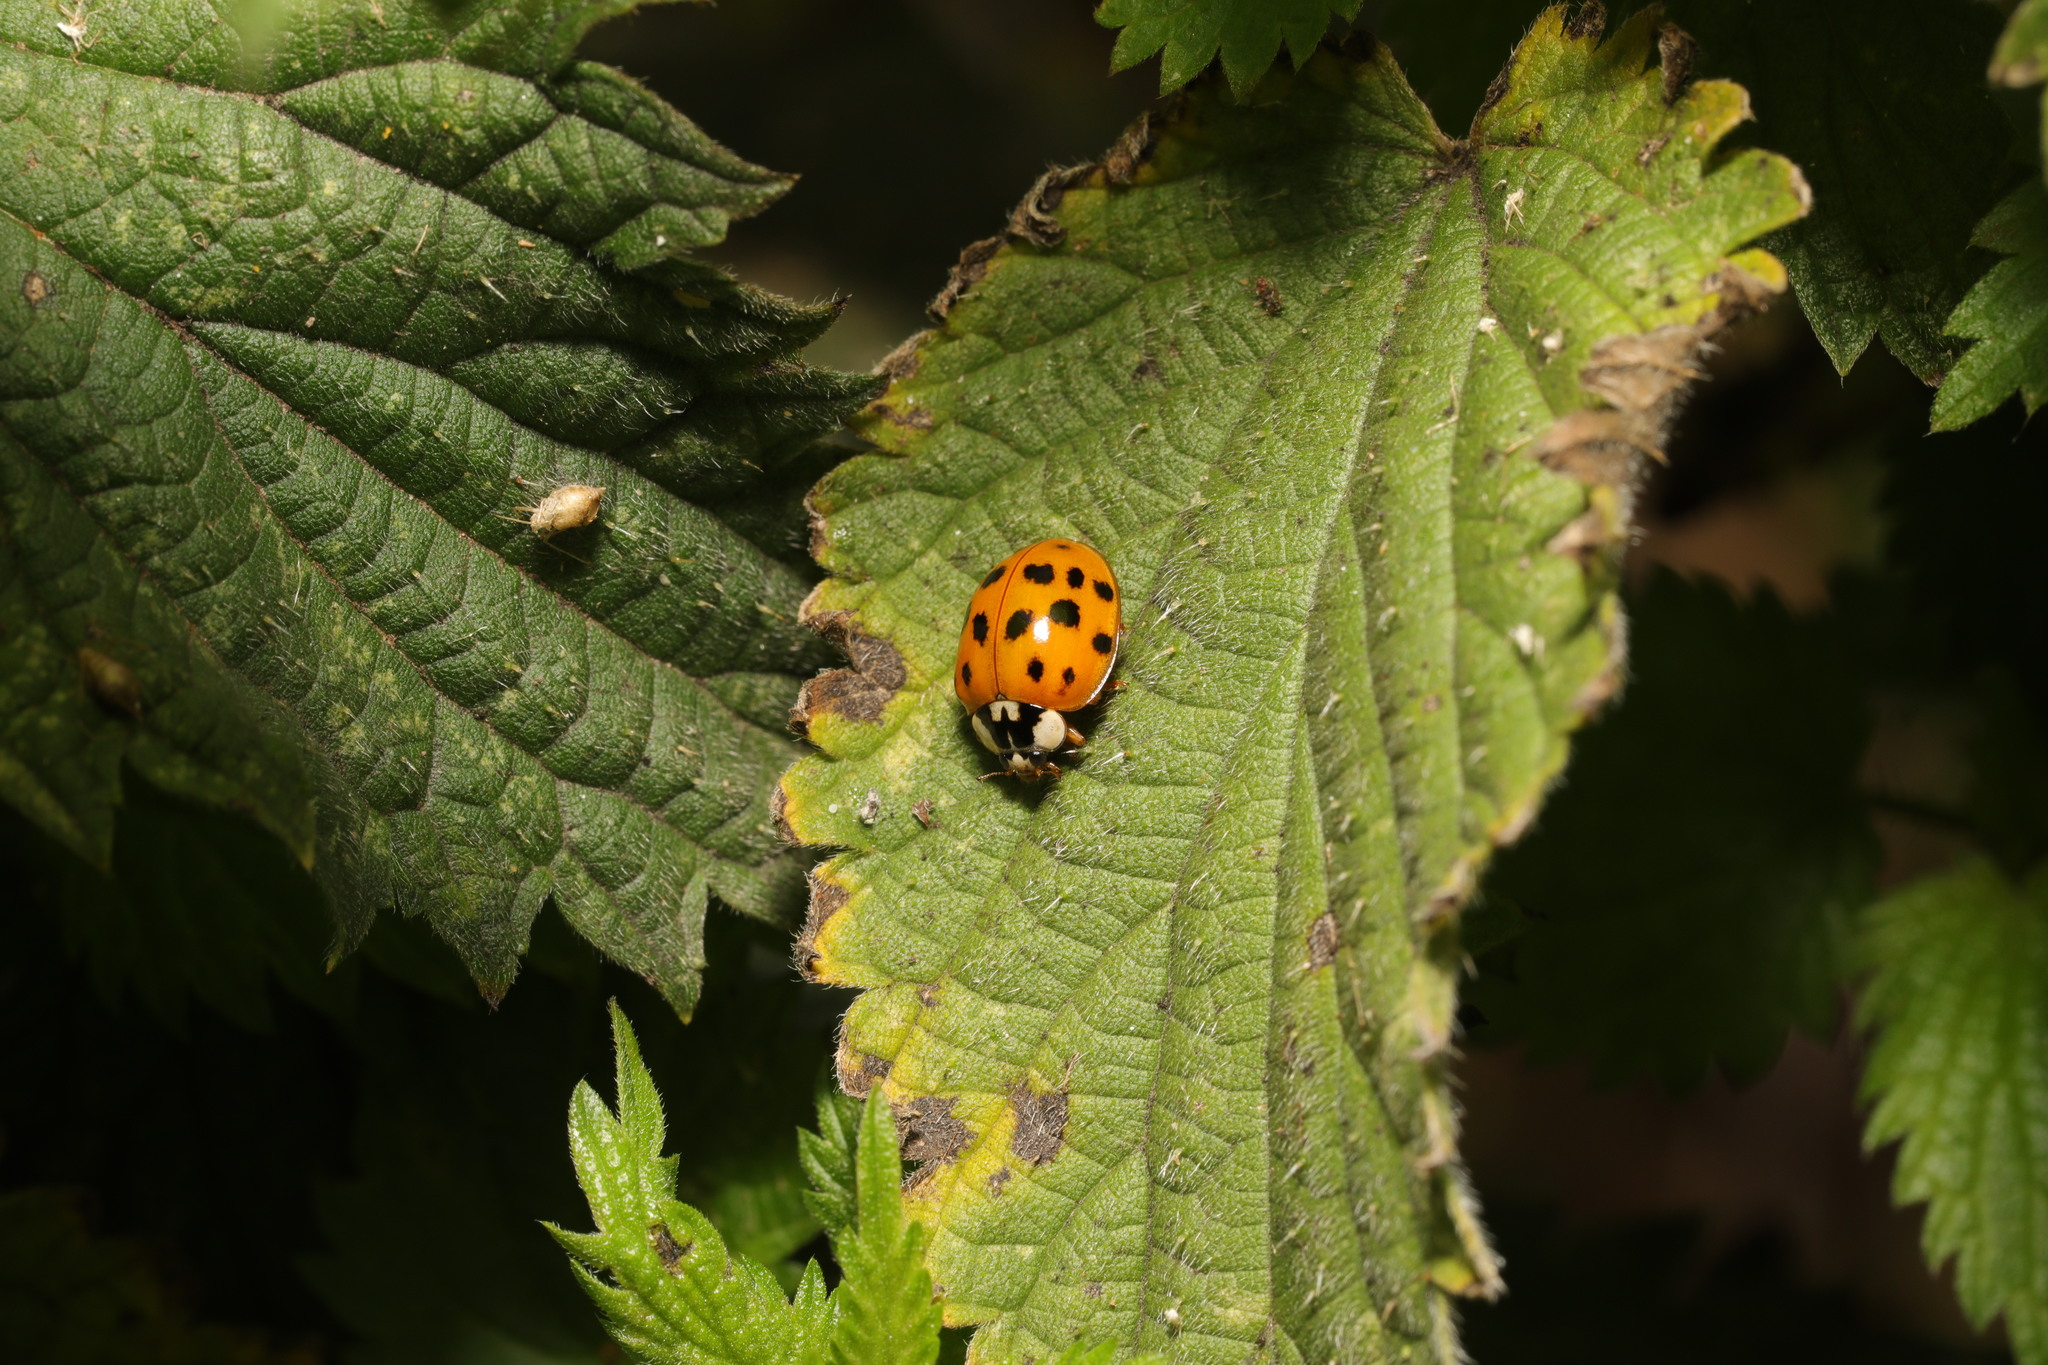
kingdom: Animalia
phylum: Arthropoda
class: Insecta
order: Coleoptera
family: Coccinellidae
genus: Coccinella
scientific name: Coccinella septempunctata
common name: Sevenspotted lady beetle
